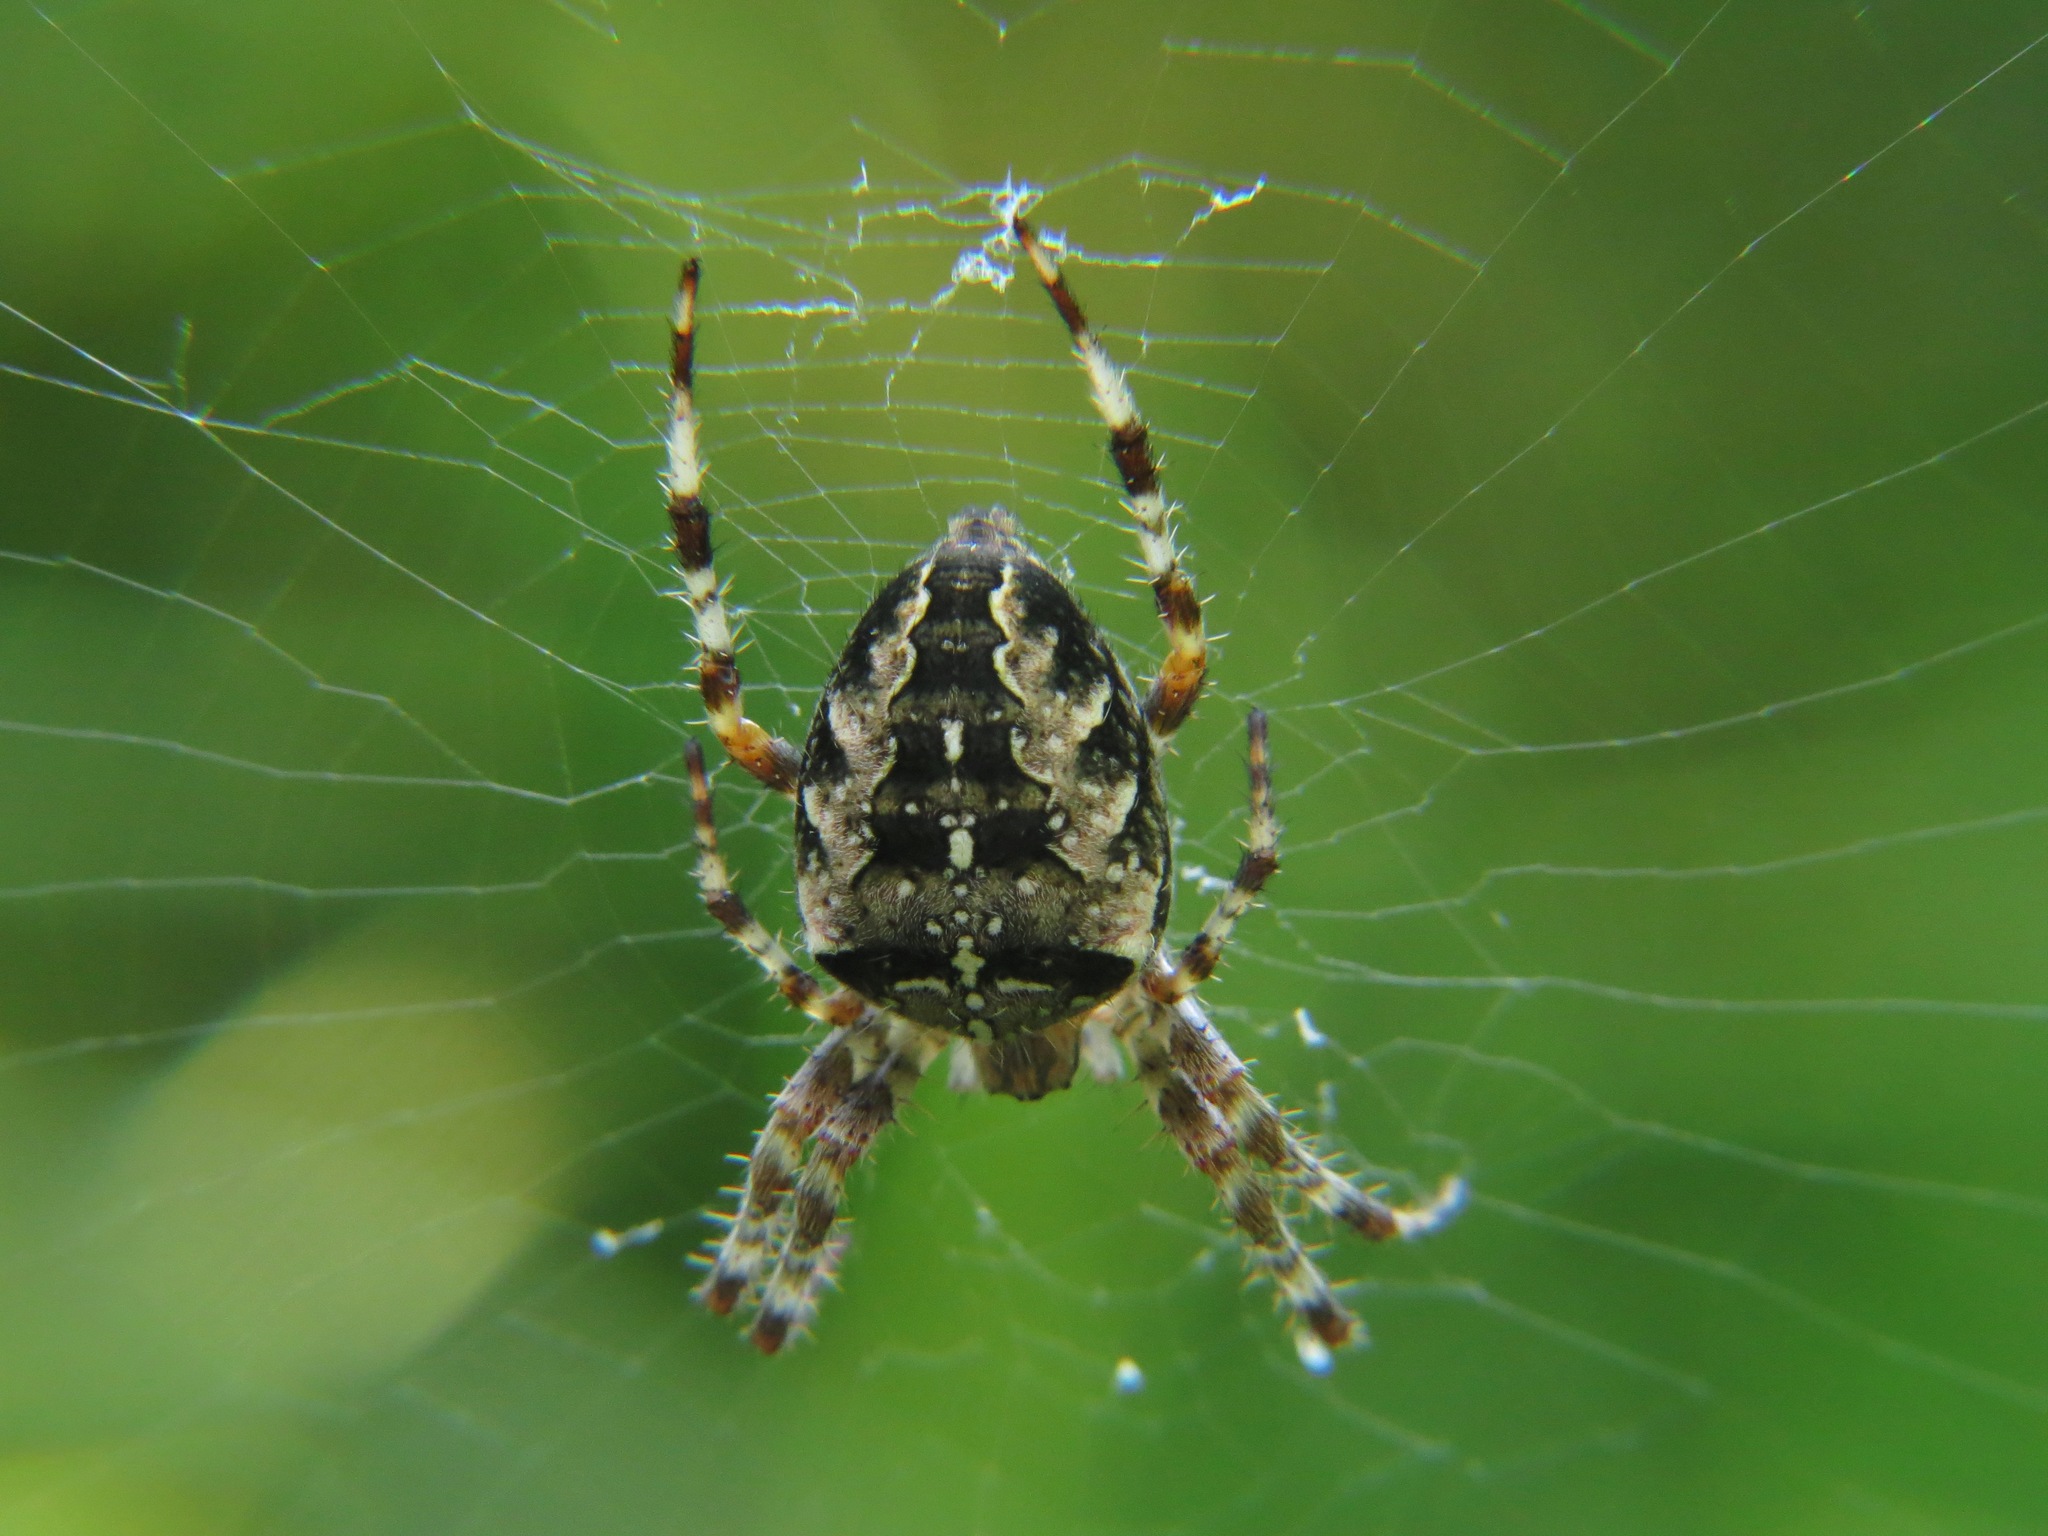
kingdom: Animalia
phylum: Arthropoda
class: Arachnida
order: Araneae
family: Araneidae
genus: Araneus
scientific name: Araneus diadematus
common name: Cross orbweaver
